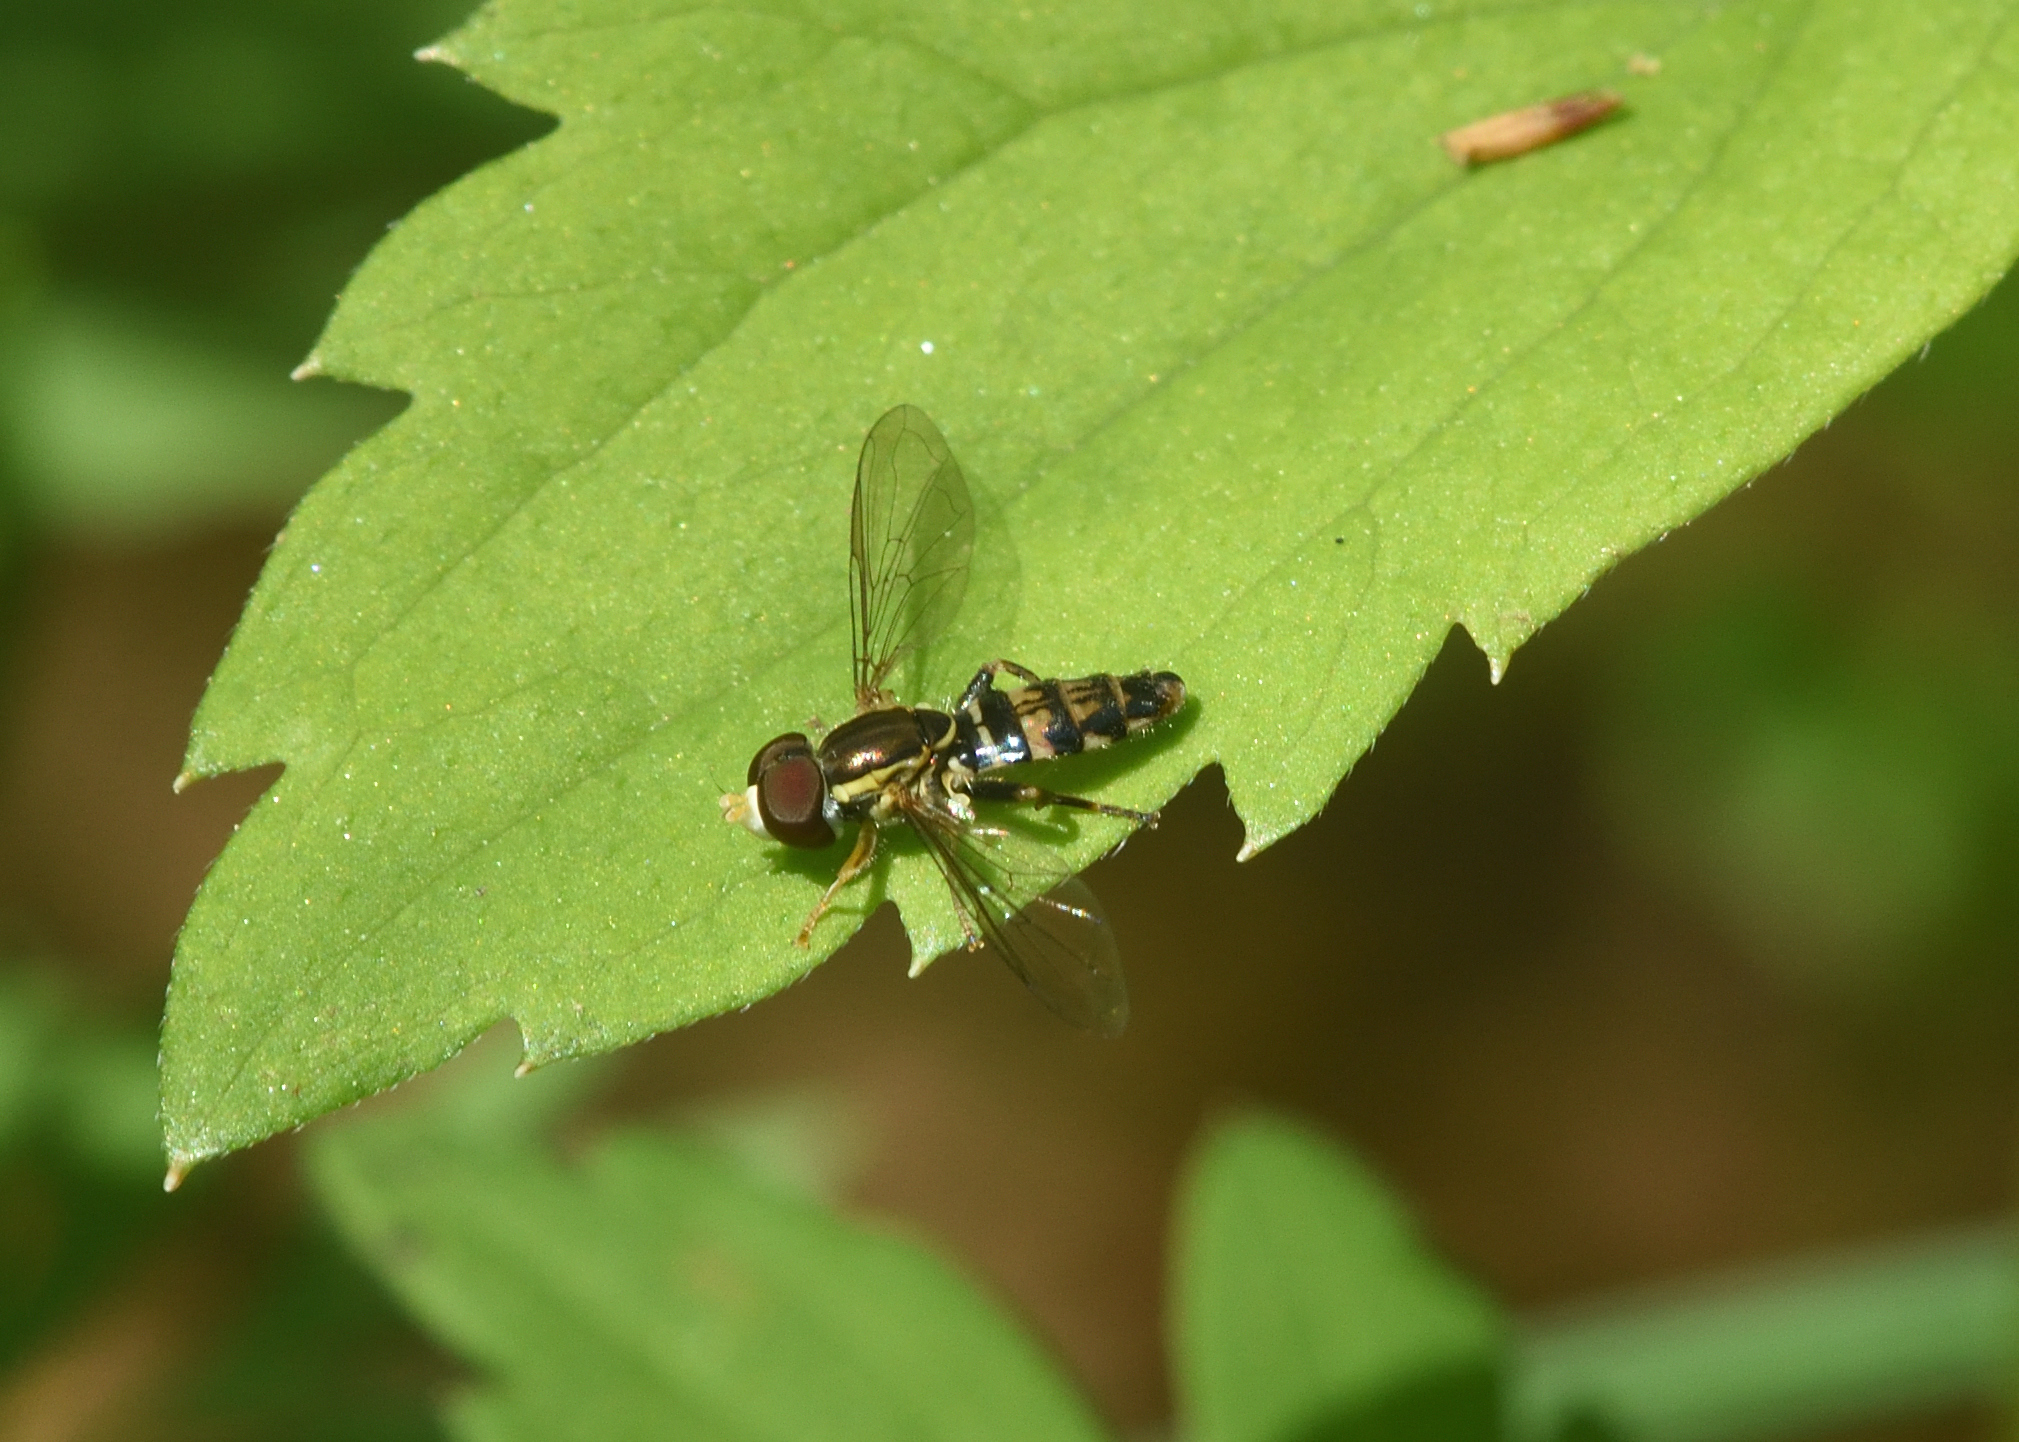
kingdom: Animalia
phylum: Arthropoda
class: Insecta
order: Diptera
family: Syrphidae
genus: Toxomerus
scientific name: Toxomerus geminatus
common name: Eastern calligrapher
